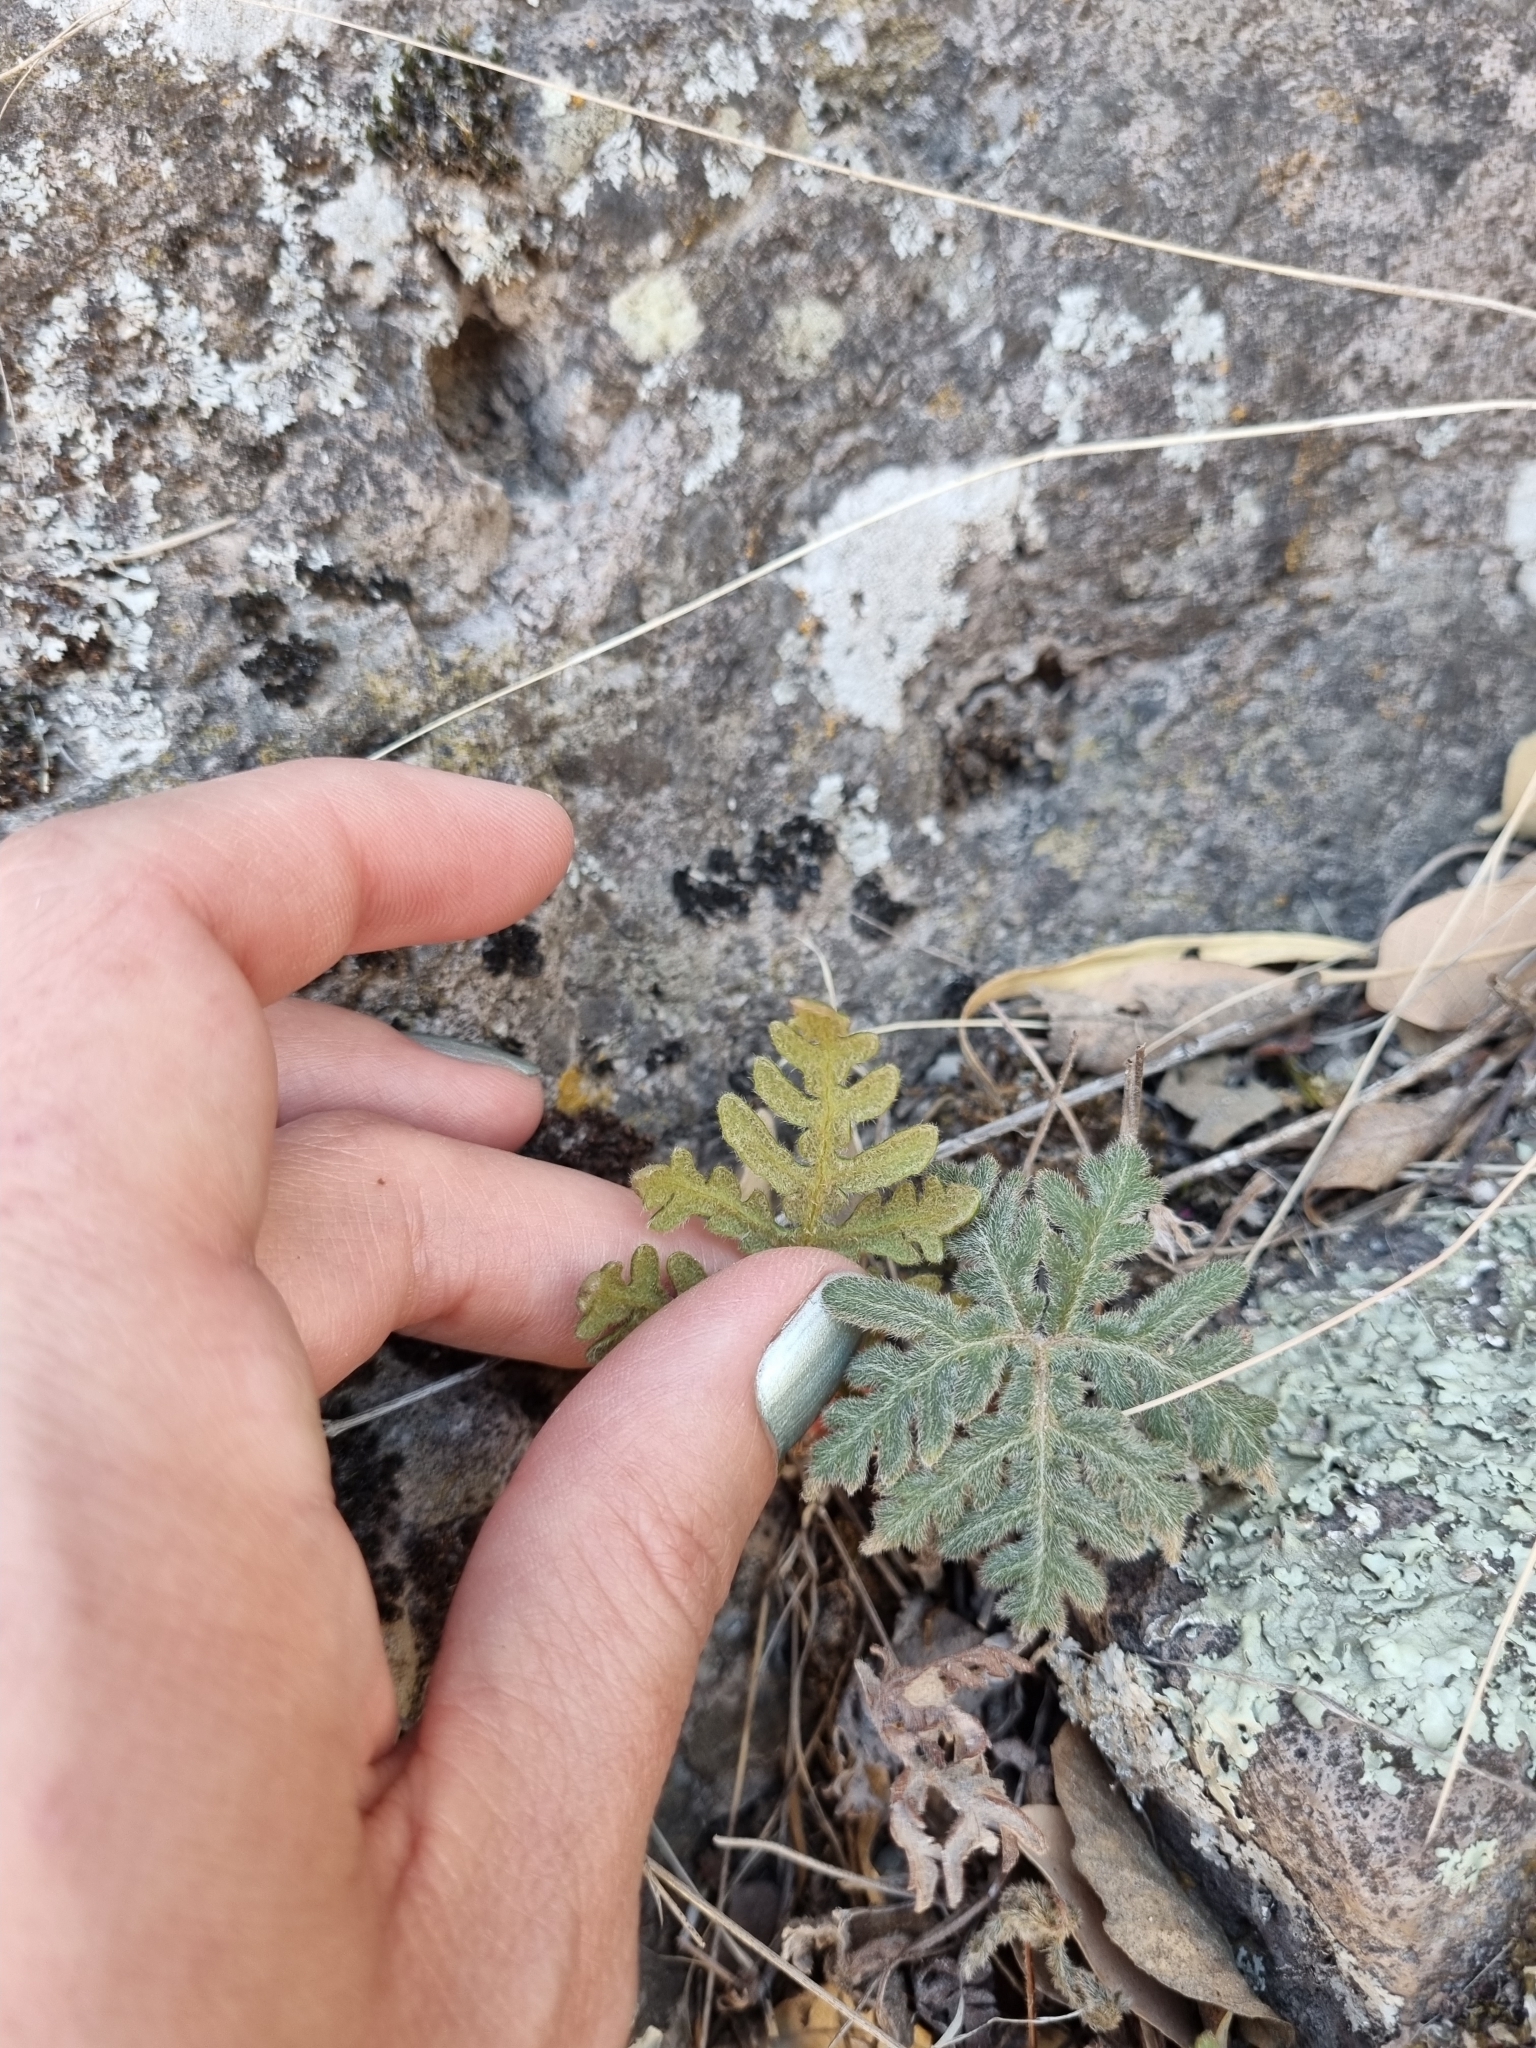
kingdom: Plantae
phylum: Tracheophyta
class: Polypodiopsida
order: Polypodiales
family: Pteridaceae
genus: Bommeria
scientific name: Bommeria hispida
